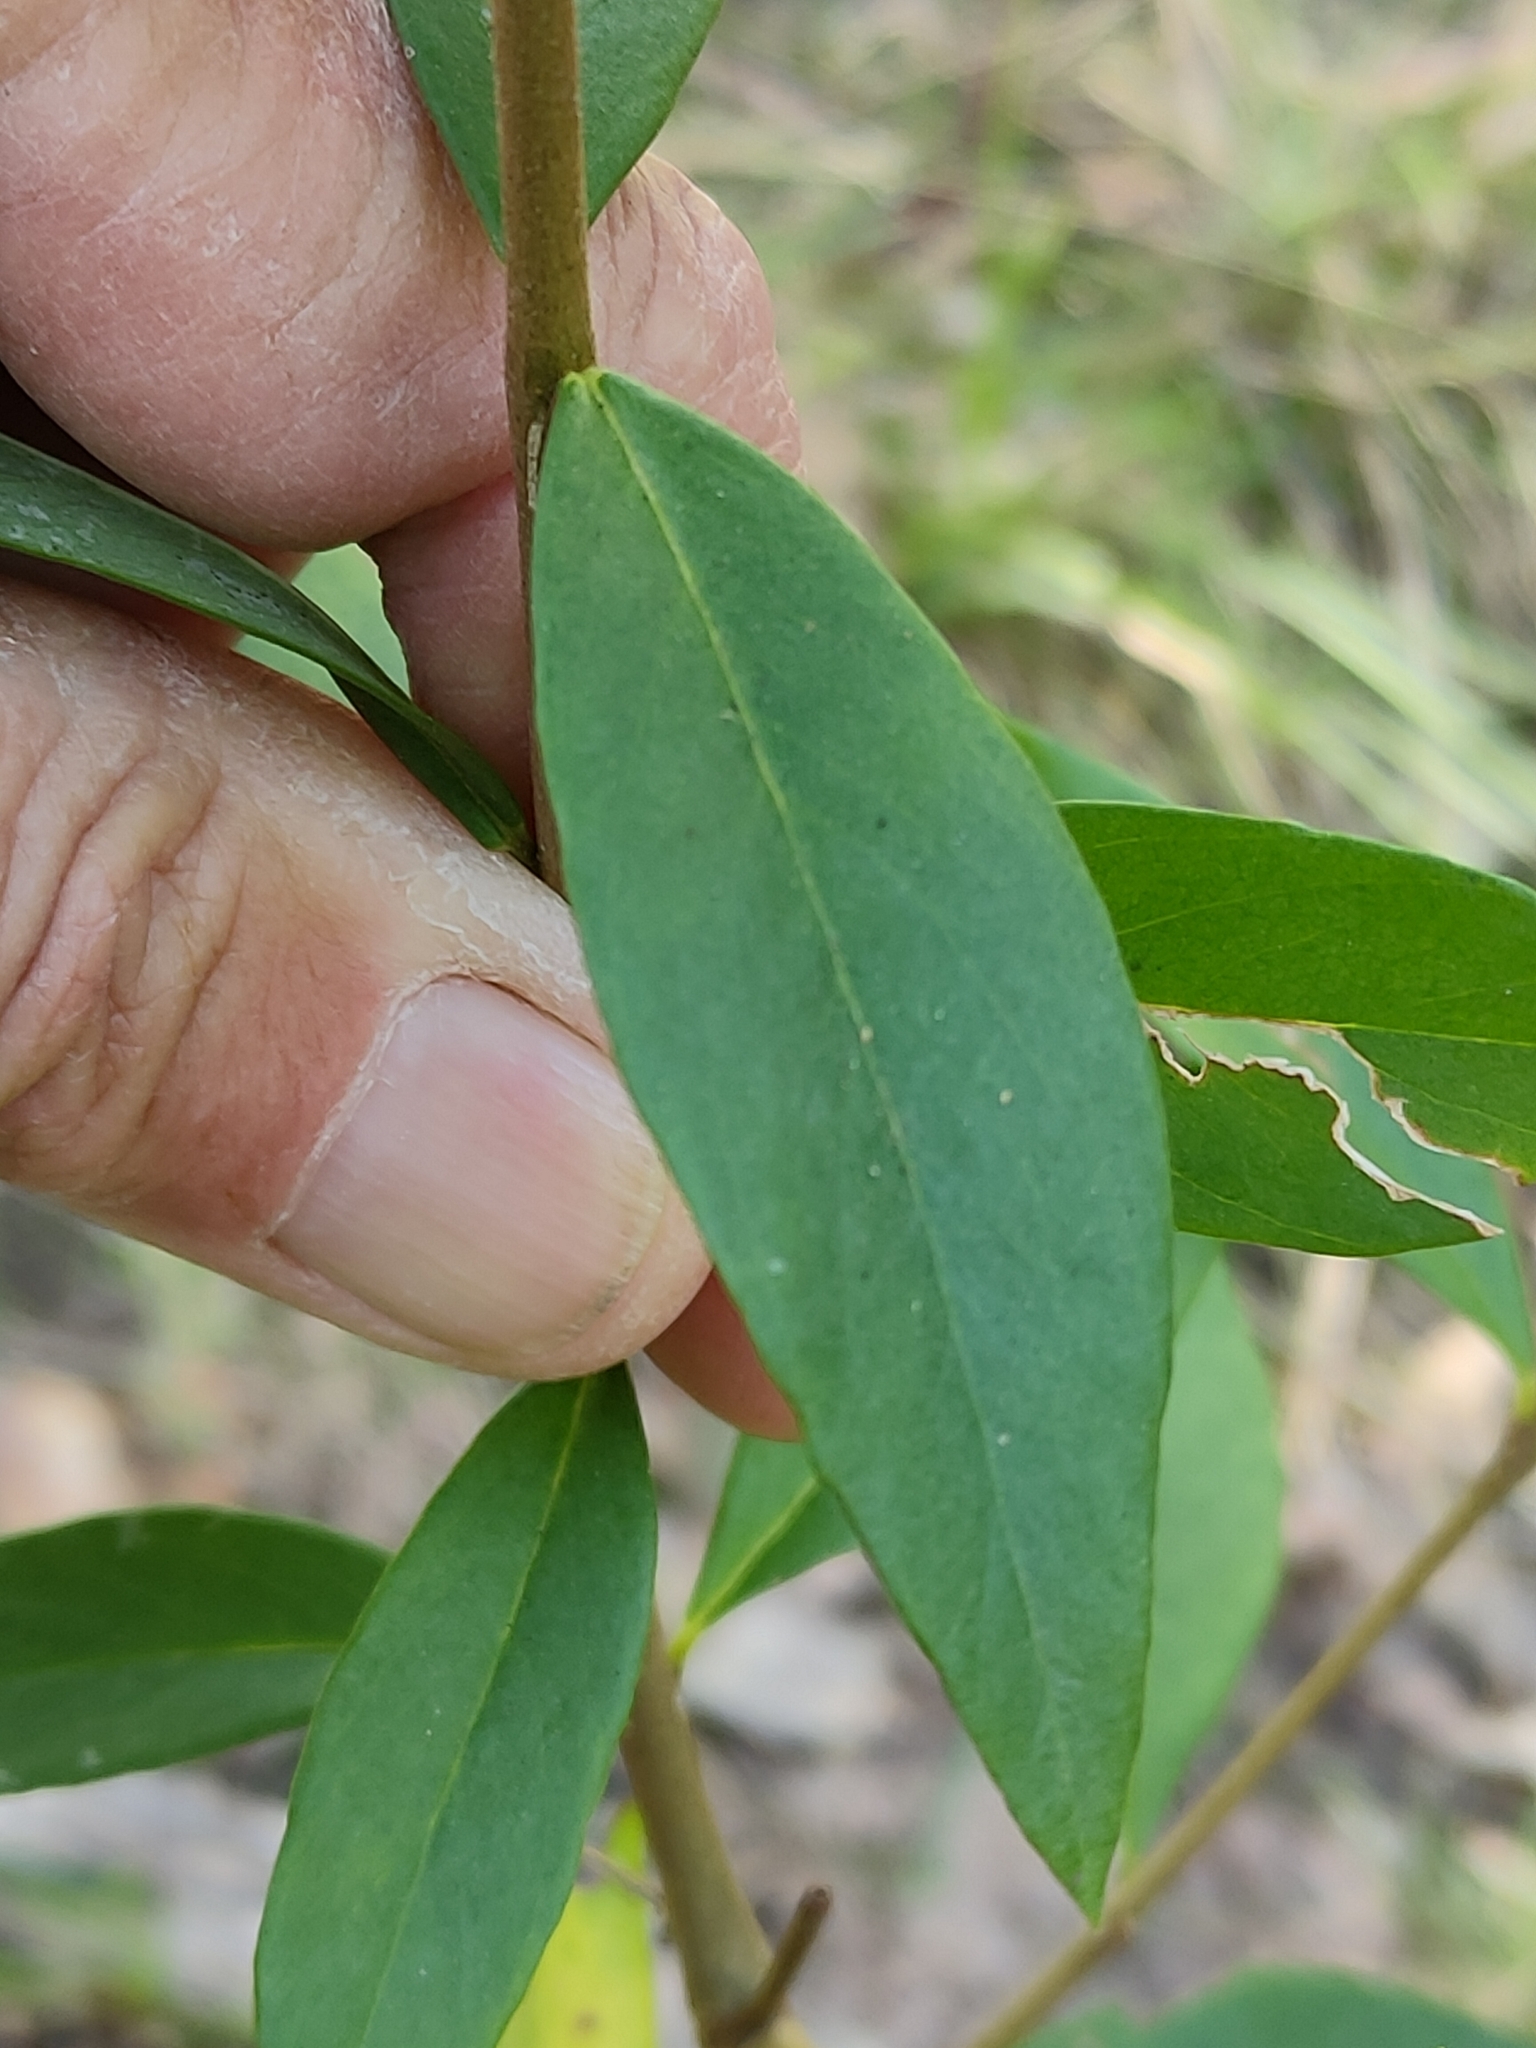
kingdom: Plantae
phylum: Tracheophyta
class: Magnoliopsida
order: Malvales
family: Thymelaeaceae
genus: Wikstroemia
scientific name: Wikstroemia indica
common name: Tiebush
